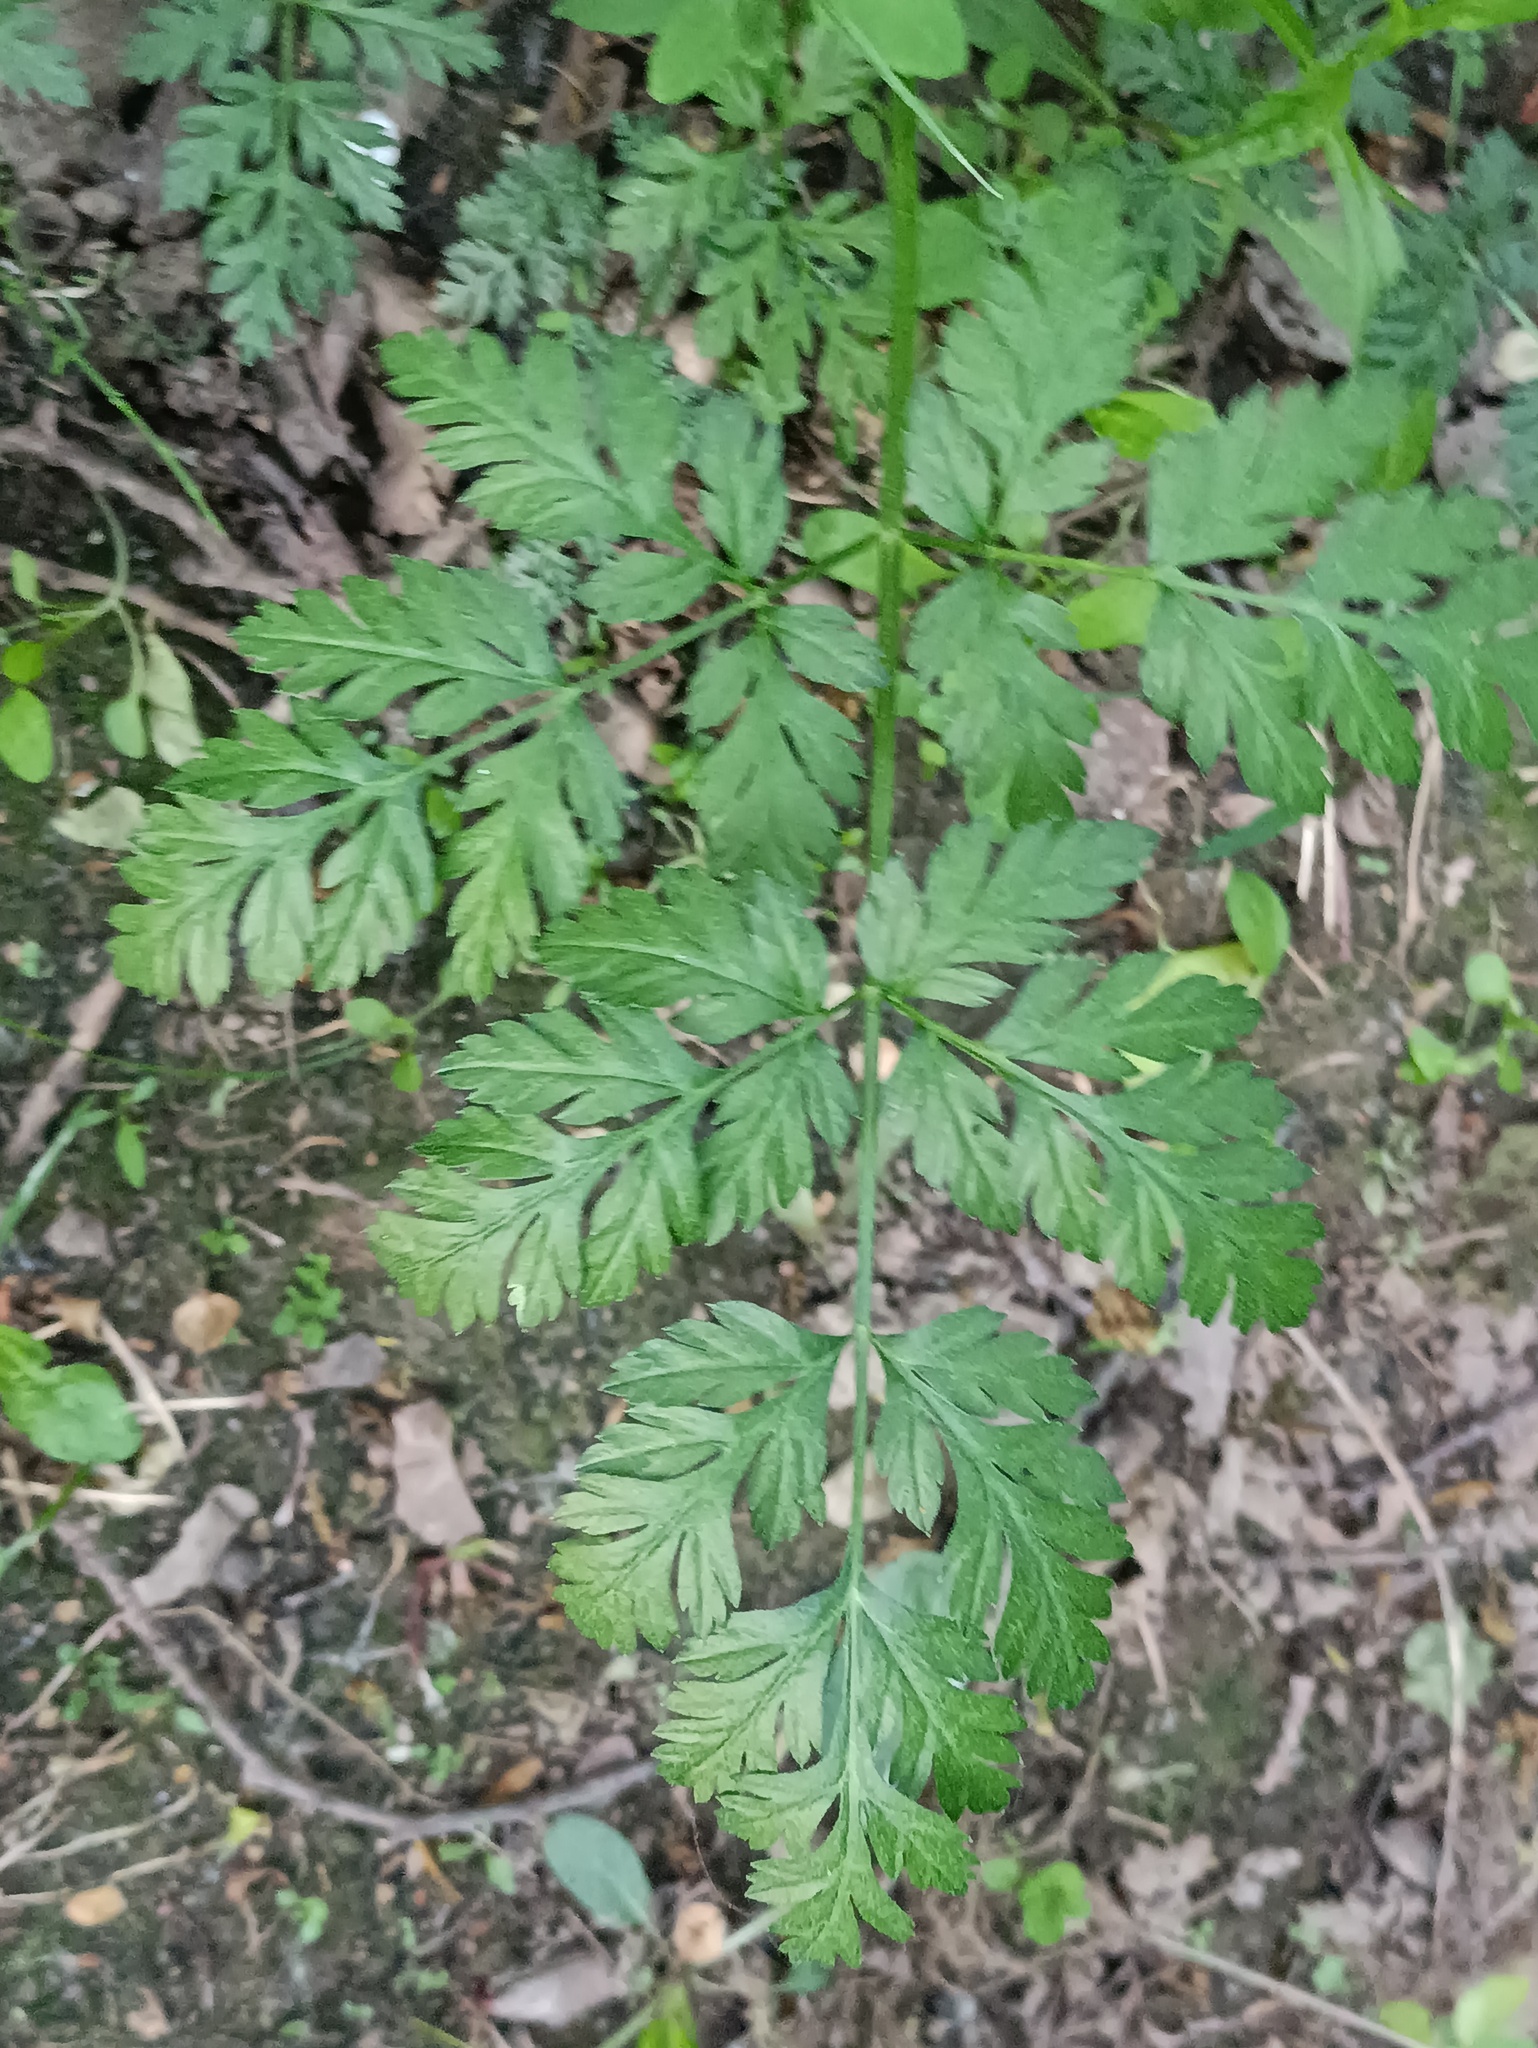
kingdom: Plantae
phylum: Tracheophyta
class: Magnoliopsida
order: Apiales
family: Apiaceae
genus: Anthriscus
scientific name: Anthriscus sylvestris
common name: Cow parsley
